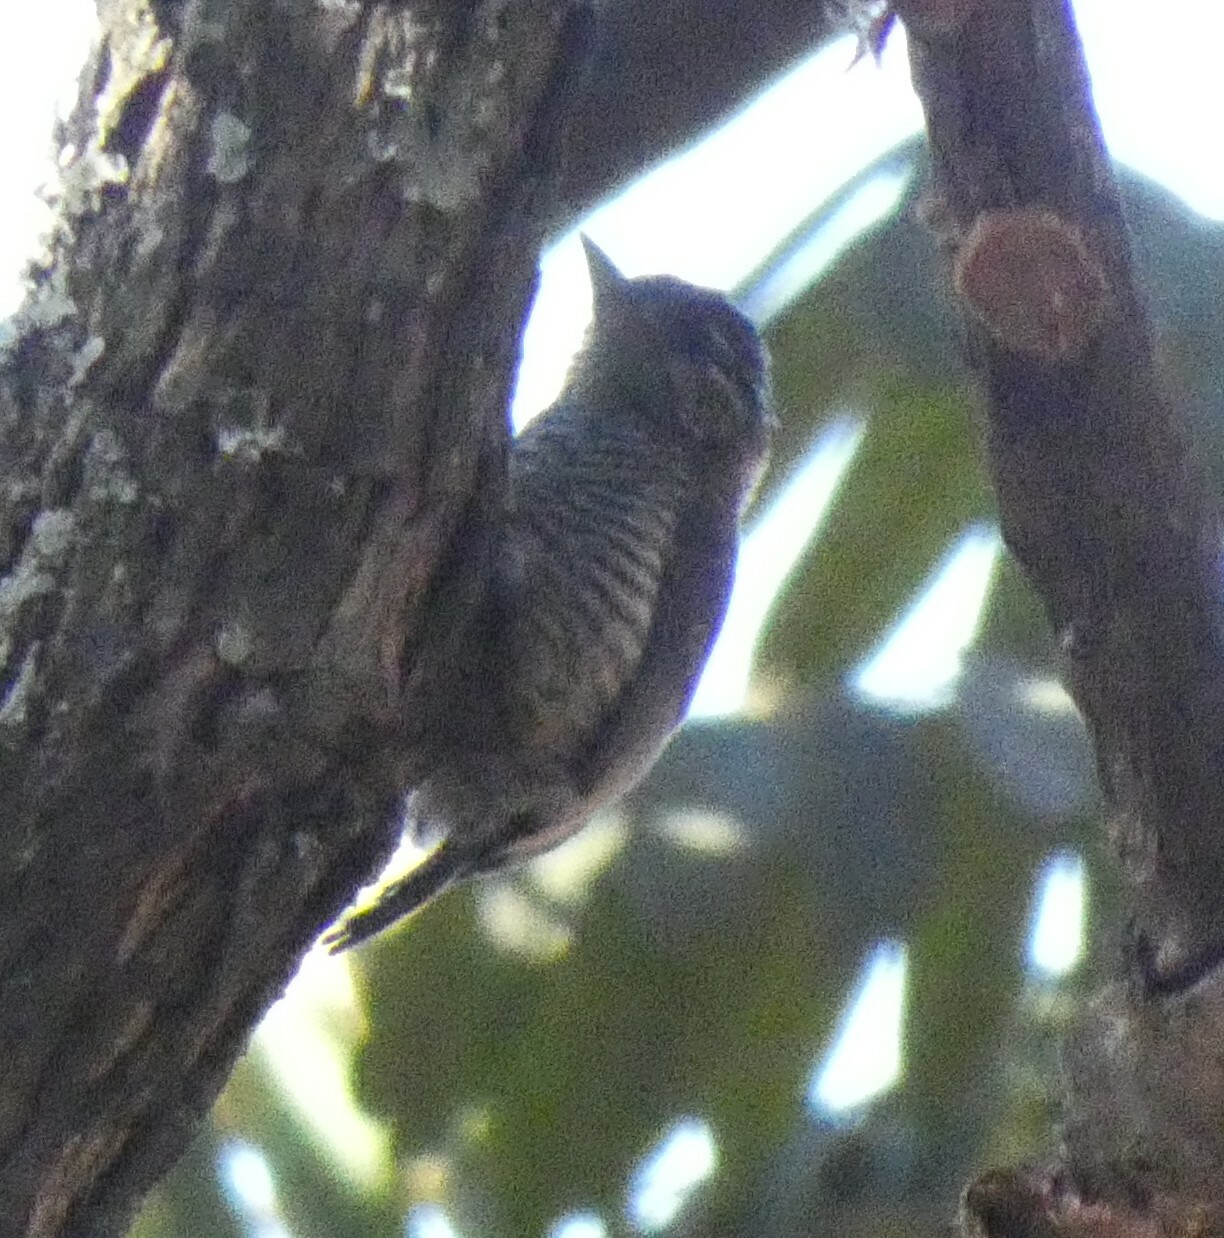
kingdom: Animalia
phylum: Chordata
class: Aves
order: Piciformes
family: Picidae
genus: Picumnus
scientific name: Picumnus cirratus
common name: White-barred piculet
